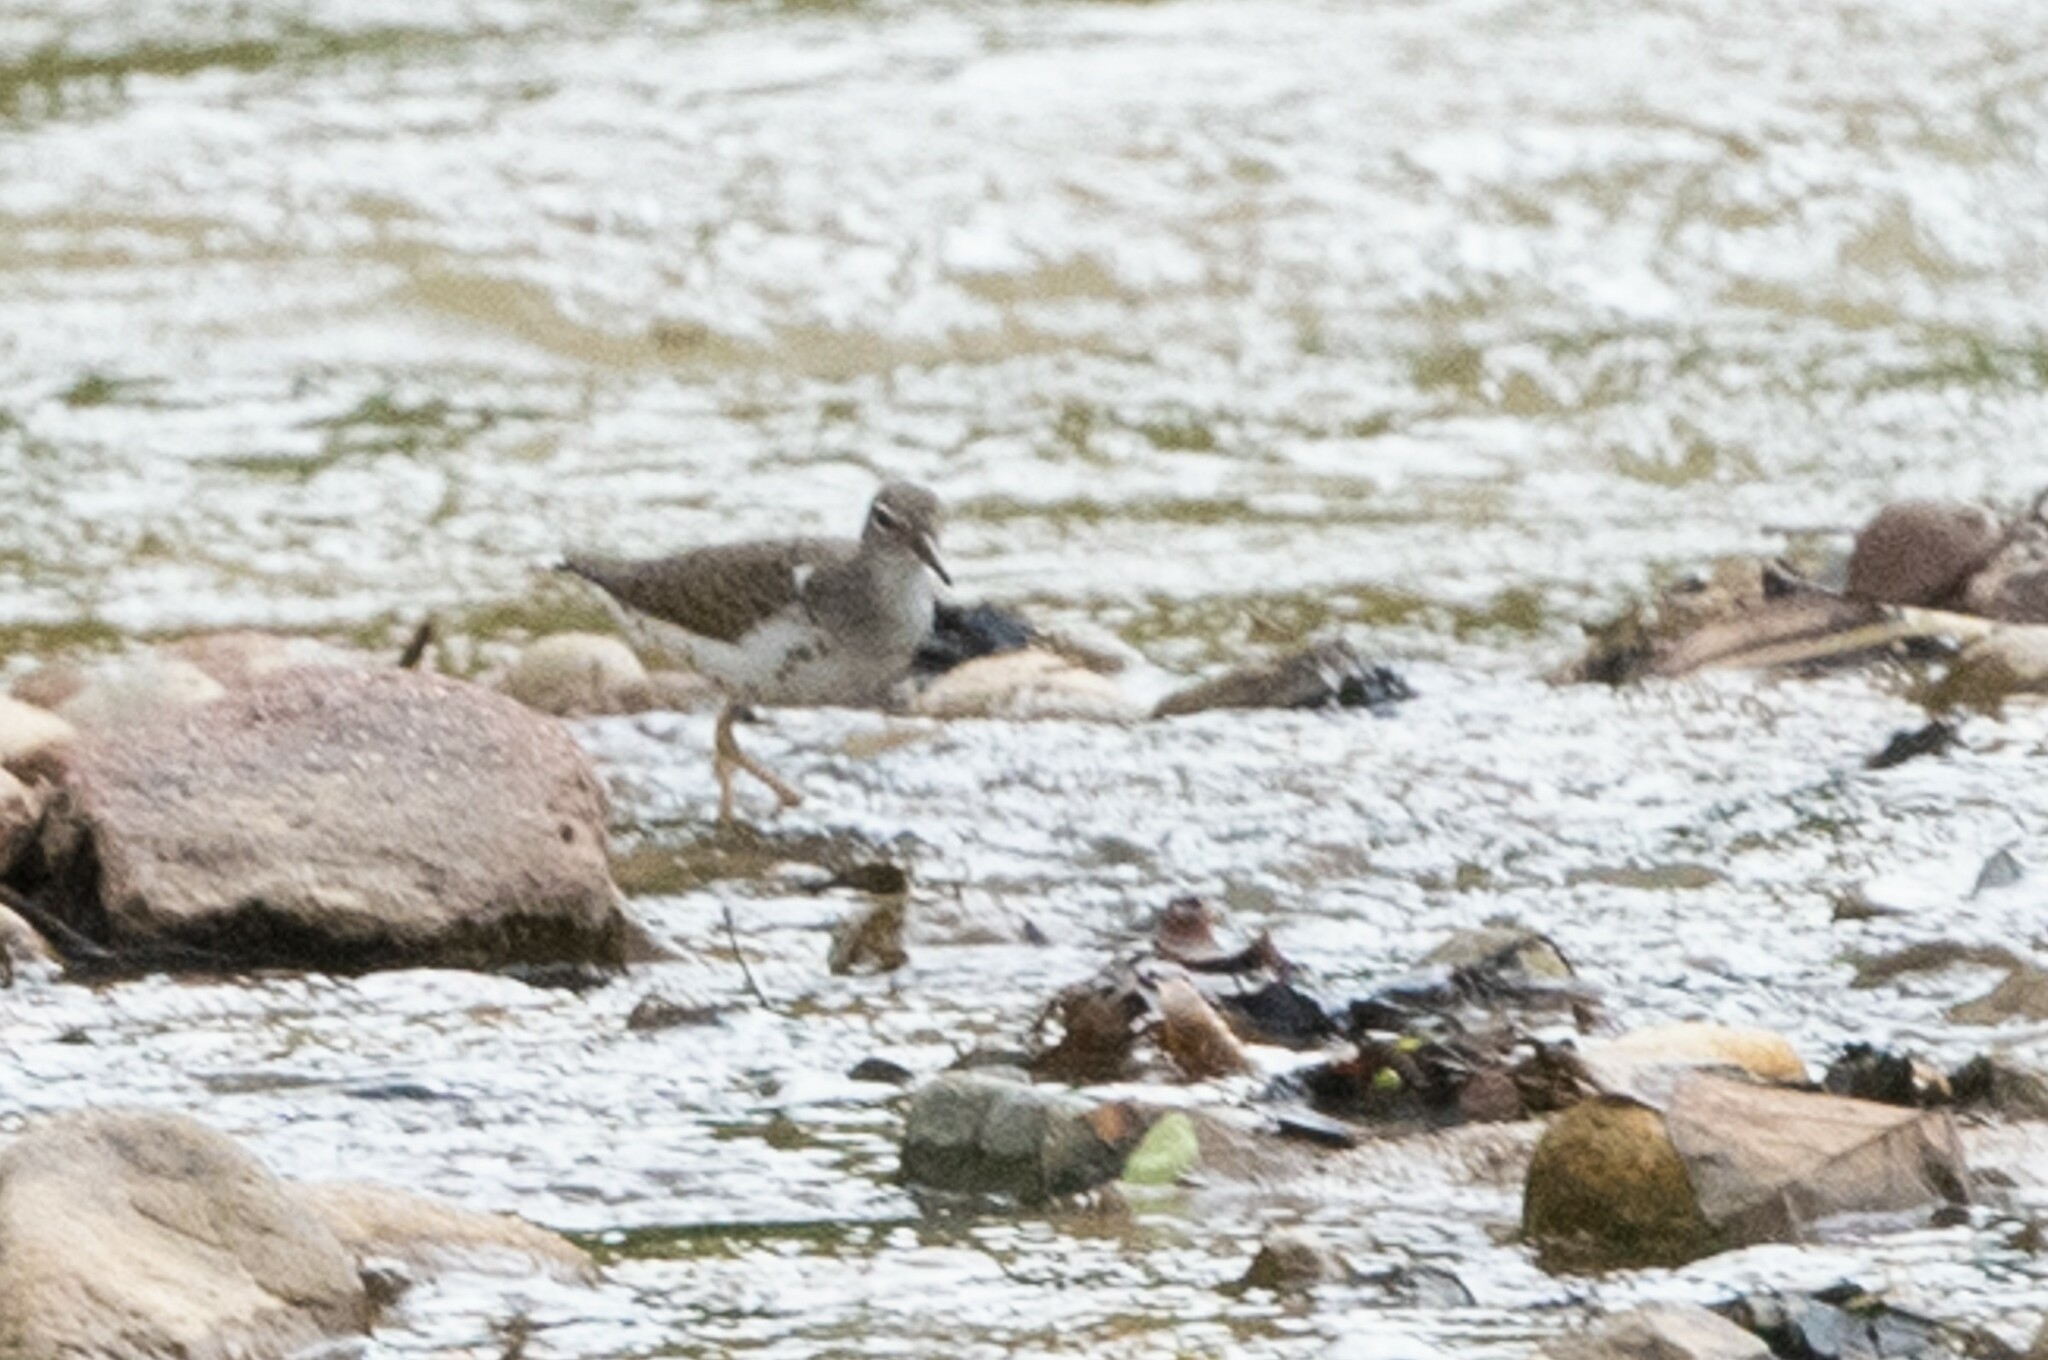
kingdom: Animalia
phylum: Chordata
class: Aves
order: Charadriiformes
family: Scolopacidae
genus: Actitis
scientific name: Actitis macularius
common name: Spotted sandpiper
